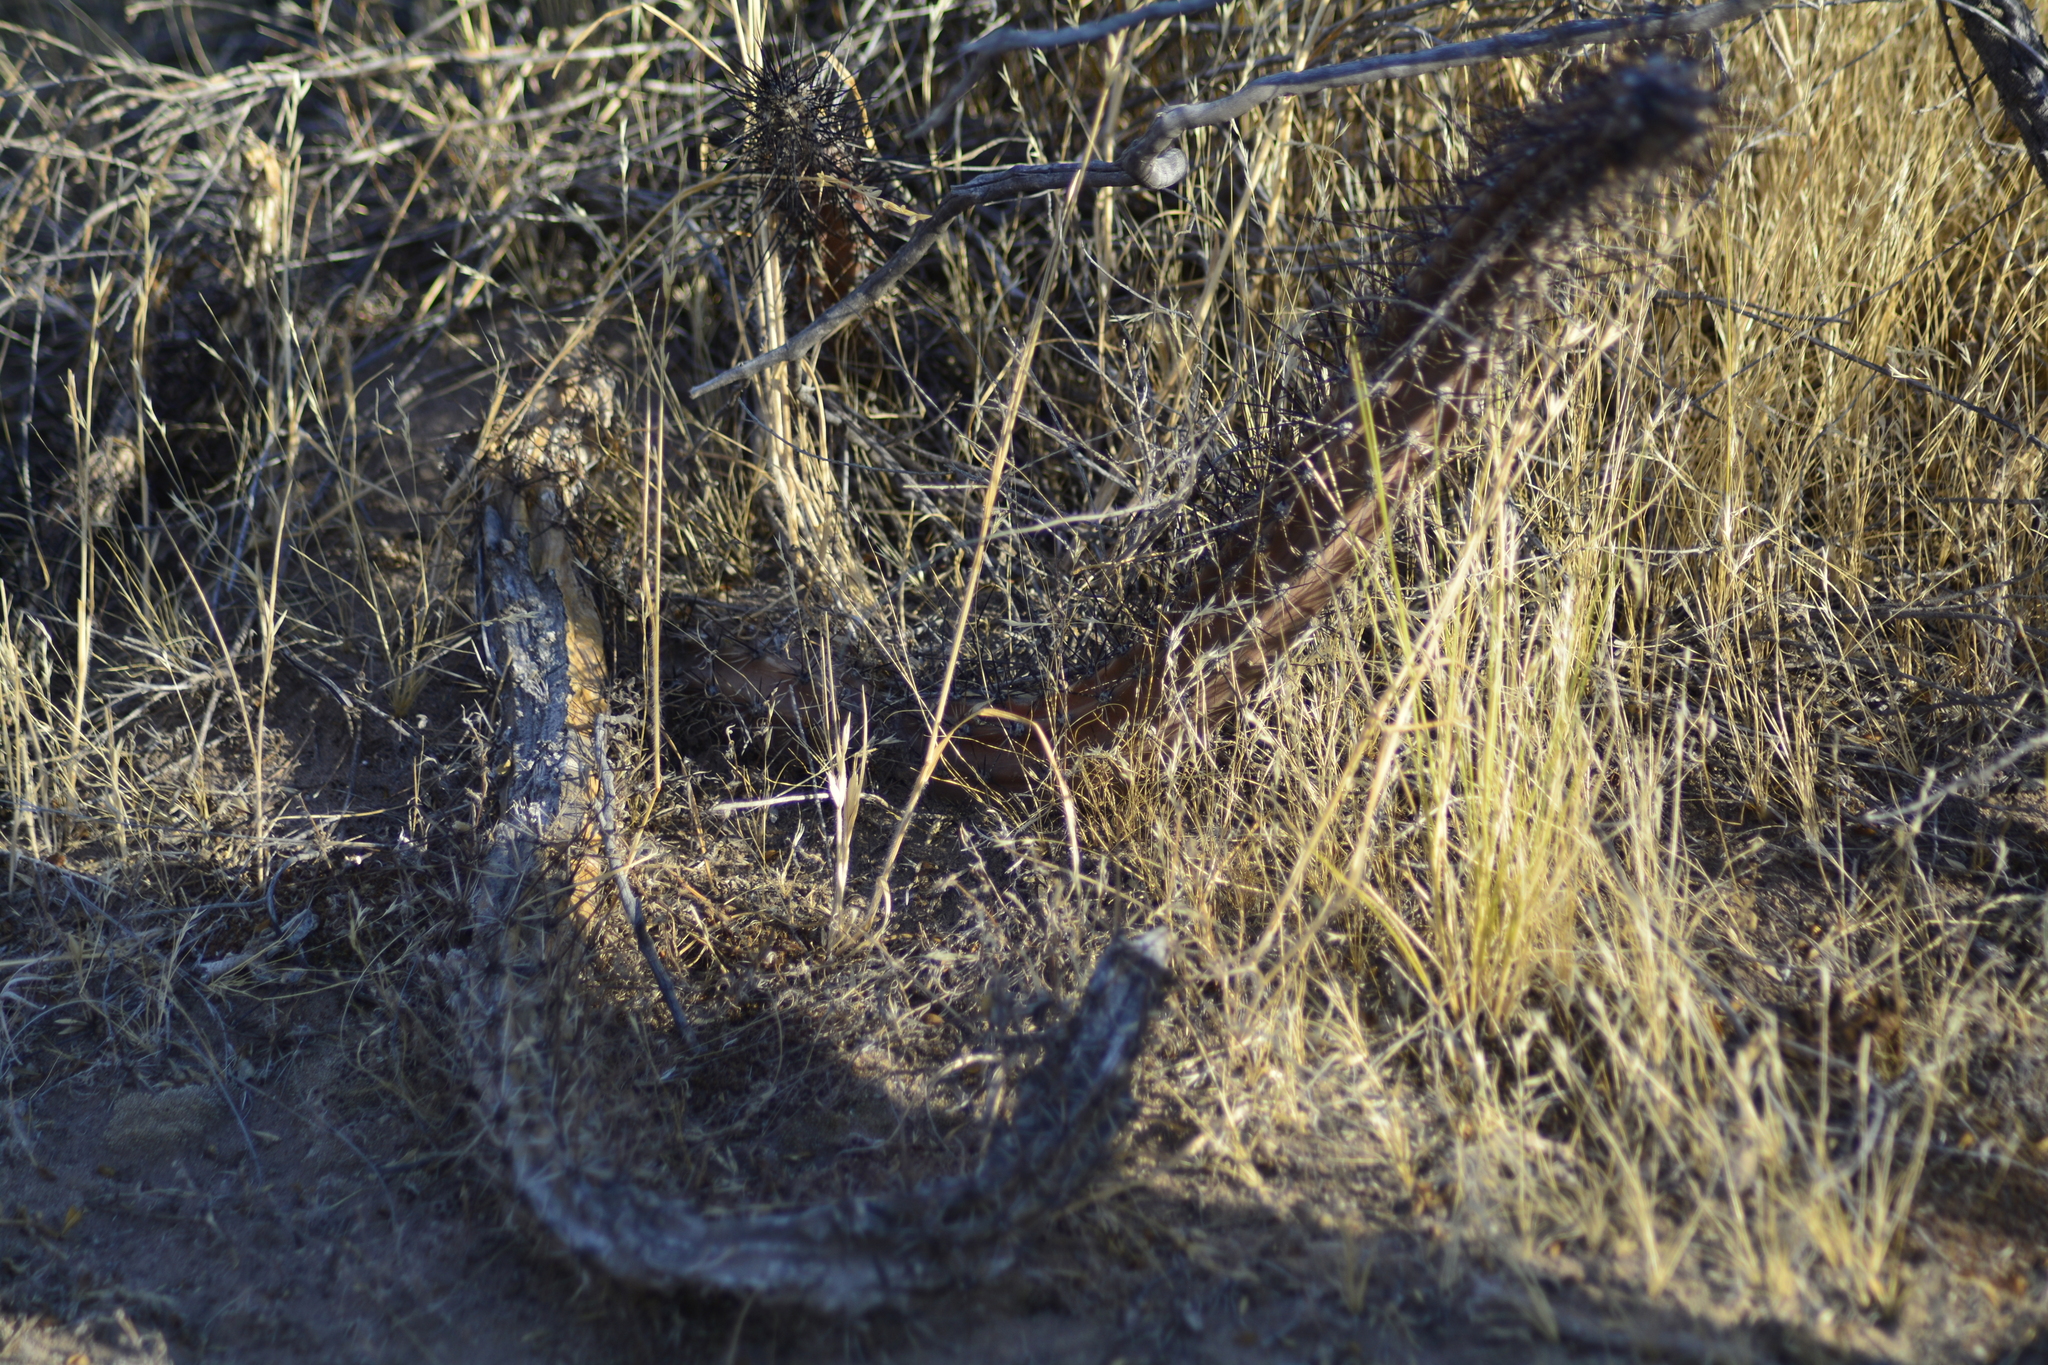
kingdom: Plantae
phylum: Tracheophyta
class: Magnoliopsida
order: Caryophyllales
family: Cactaceae
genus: Cereus
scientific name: Cereus aethiops
